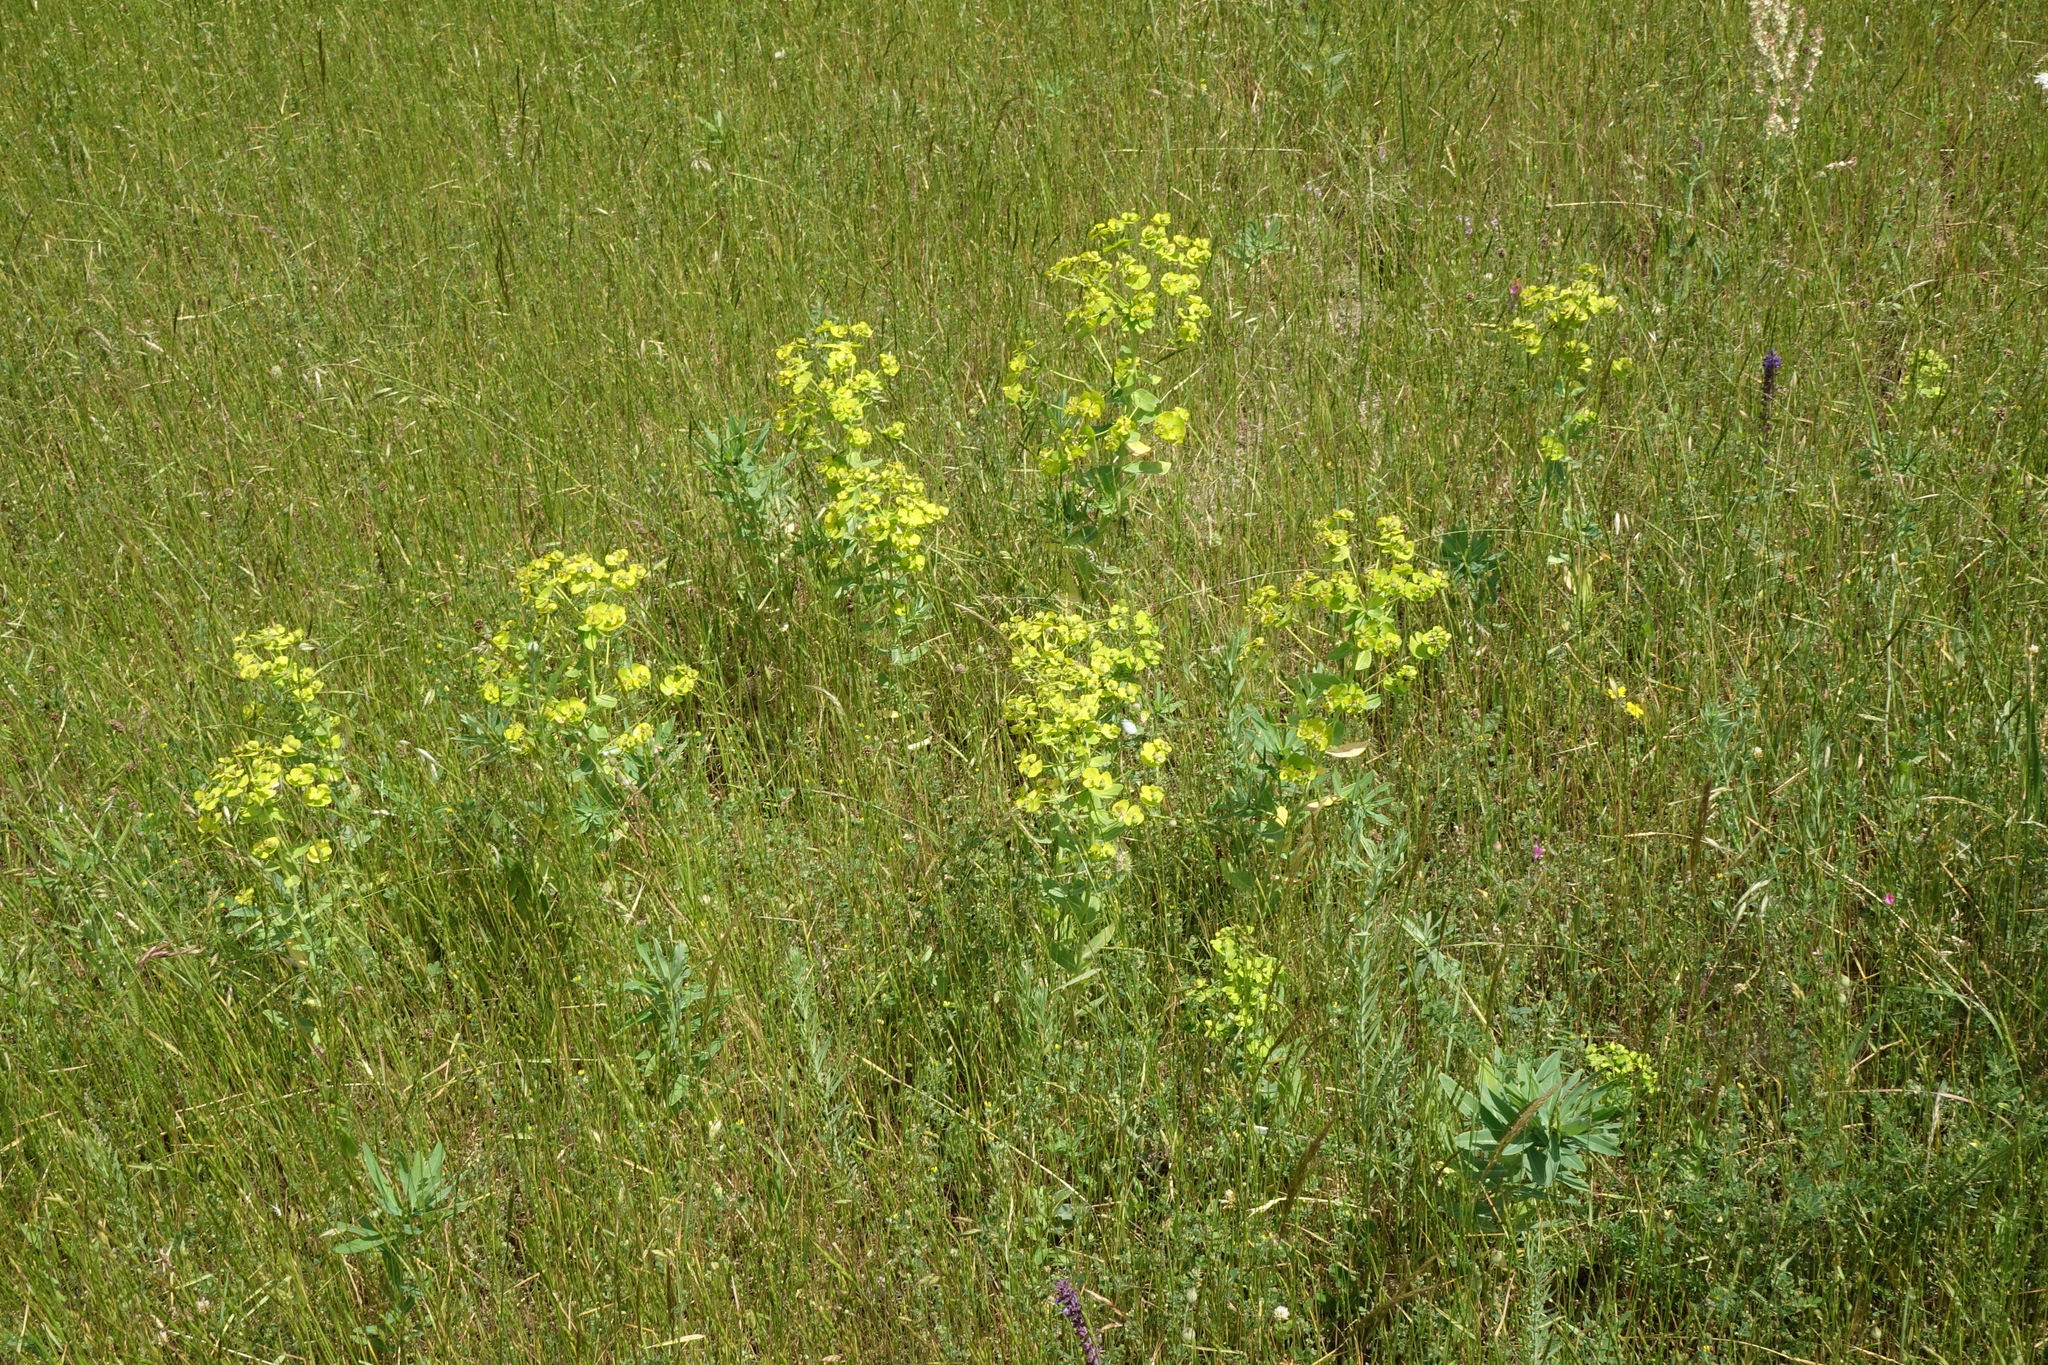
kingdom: Plantae
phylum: Tracheophyta
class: Magnoliopsida
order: Malpighiales
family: Euphorbiaceae
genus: Euphorbia
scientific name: Euphorbia iberica
